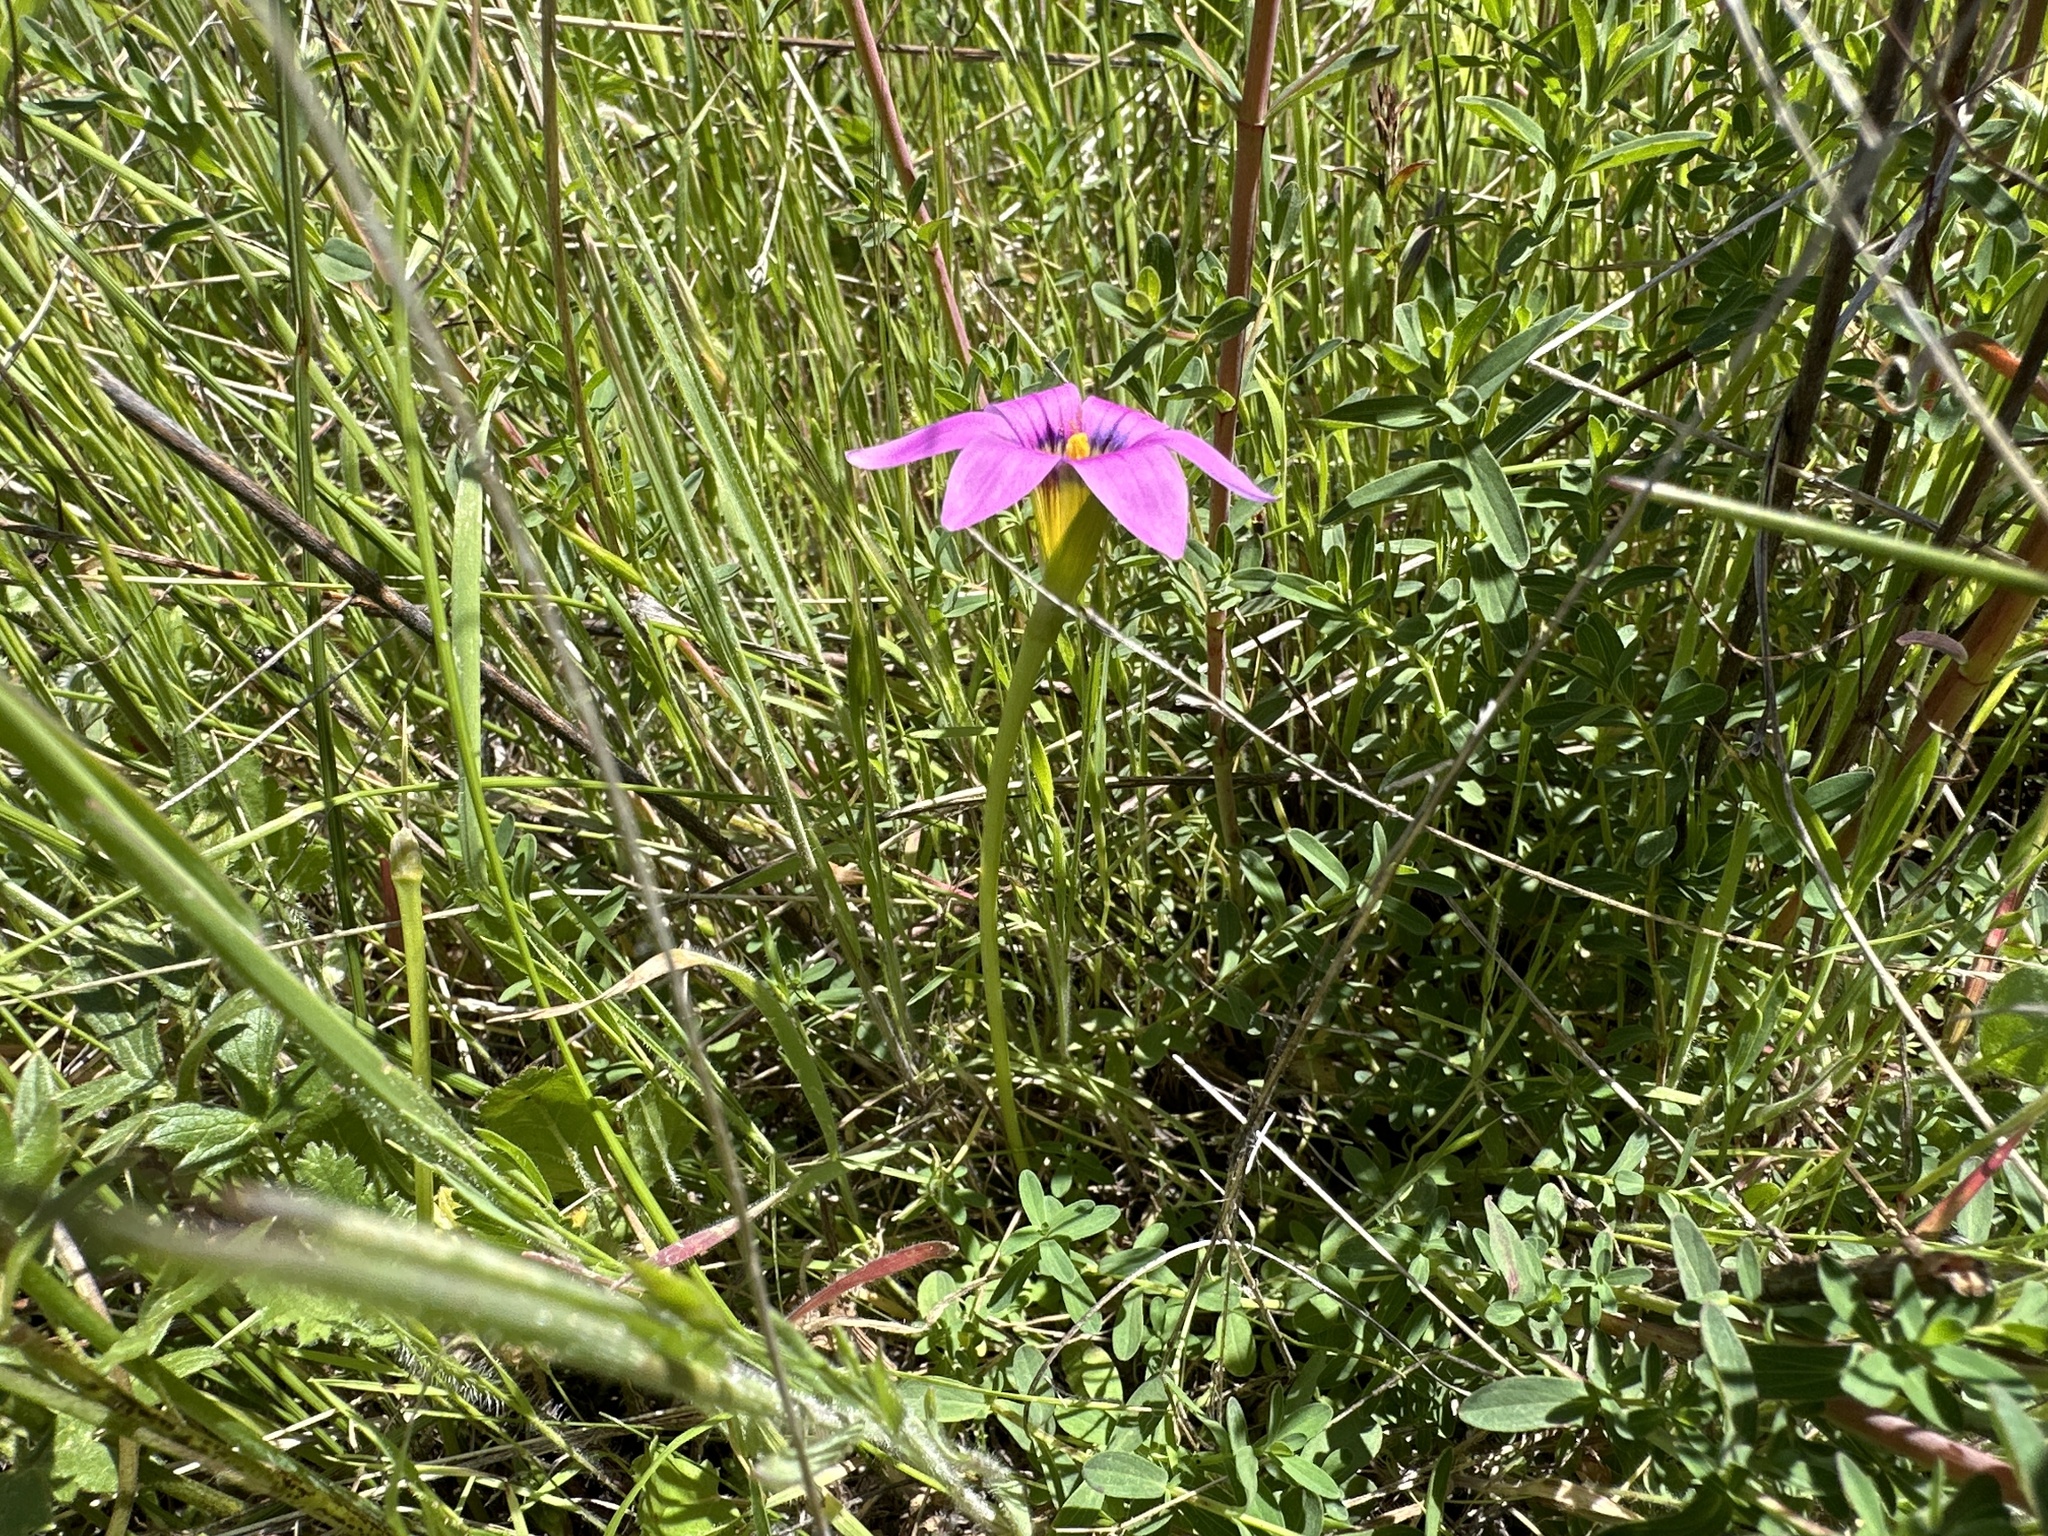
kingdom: Plantae
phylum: Tracheophyta
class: Liliopsida
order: Asparagales
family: Iridaceae
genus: Romulea
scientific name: Romulea rosea
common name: Oniongrass
